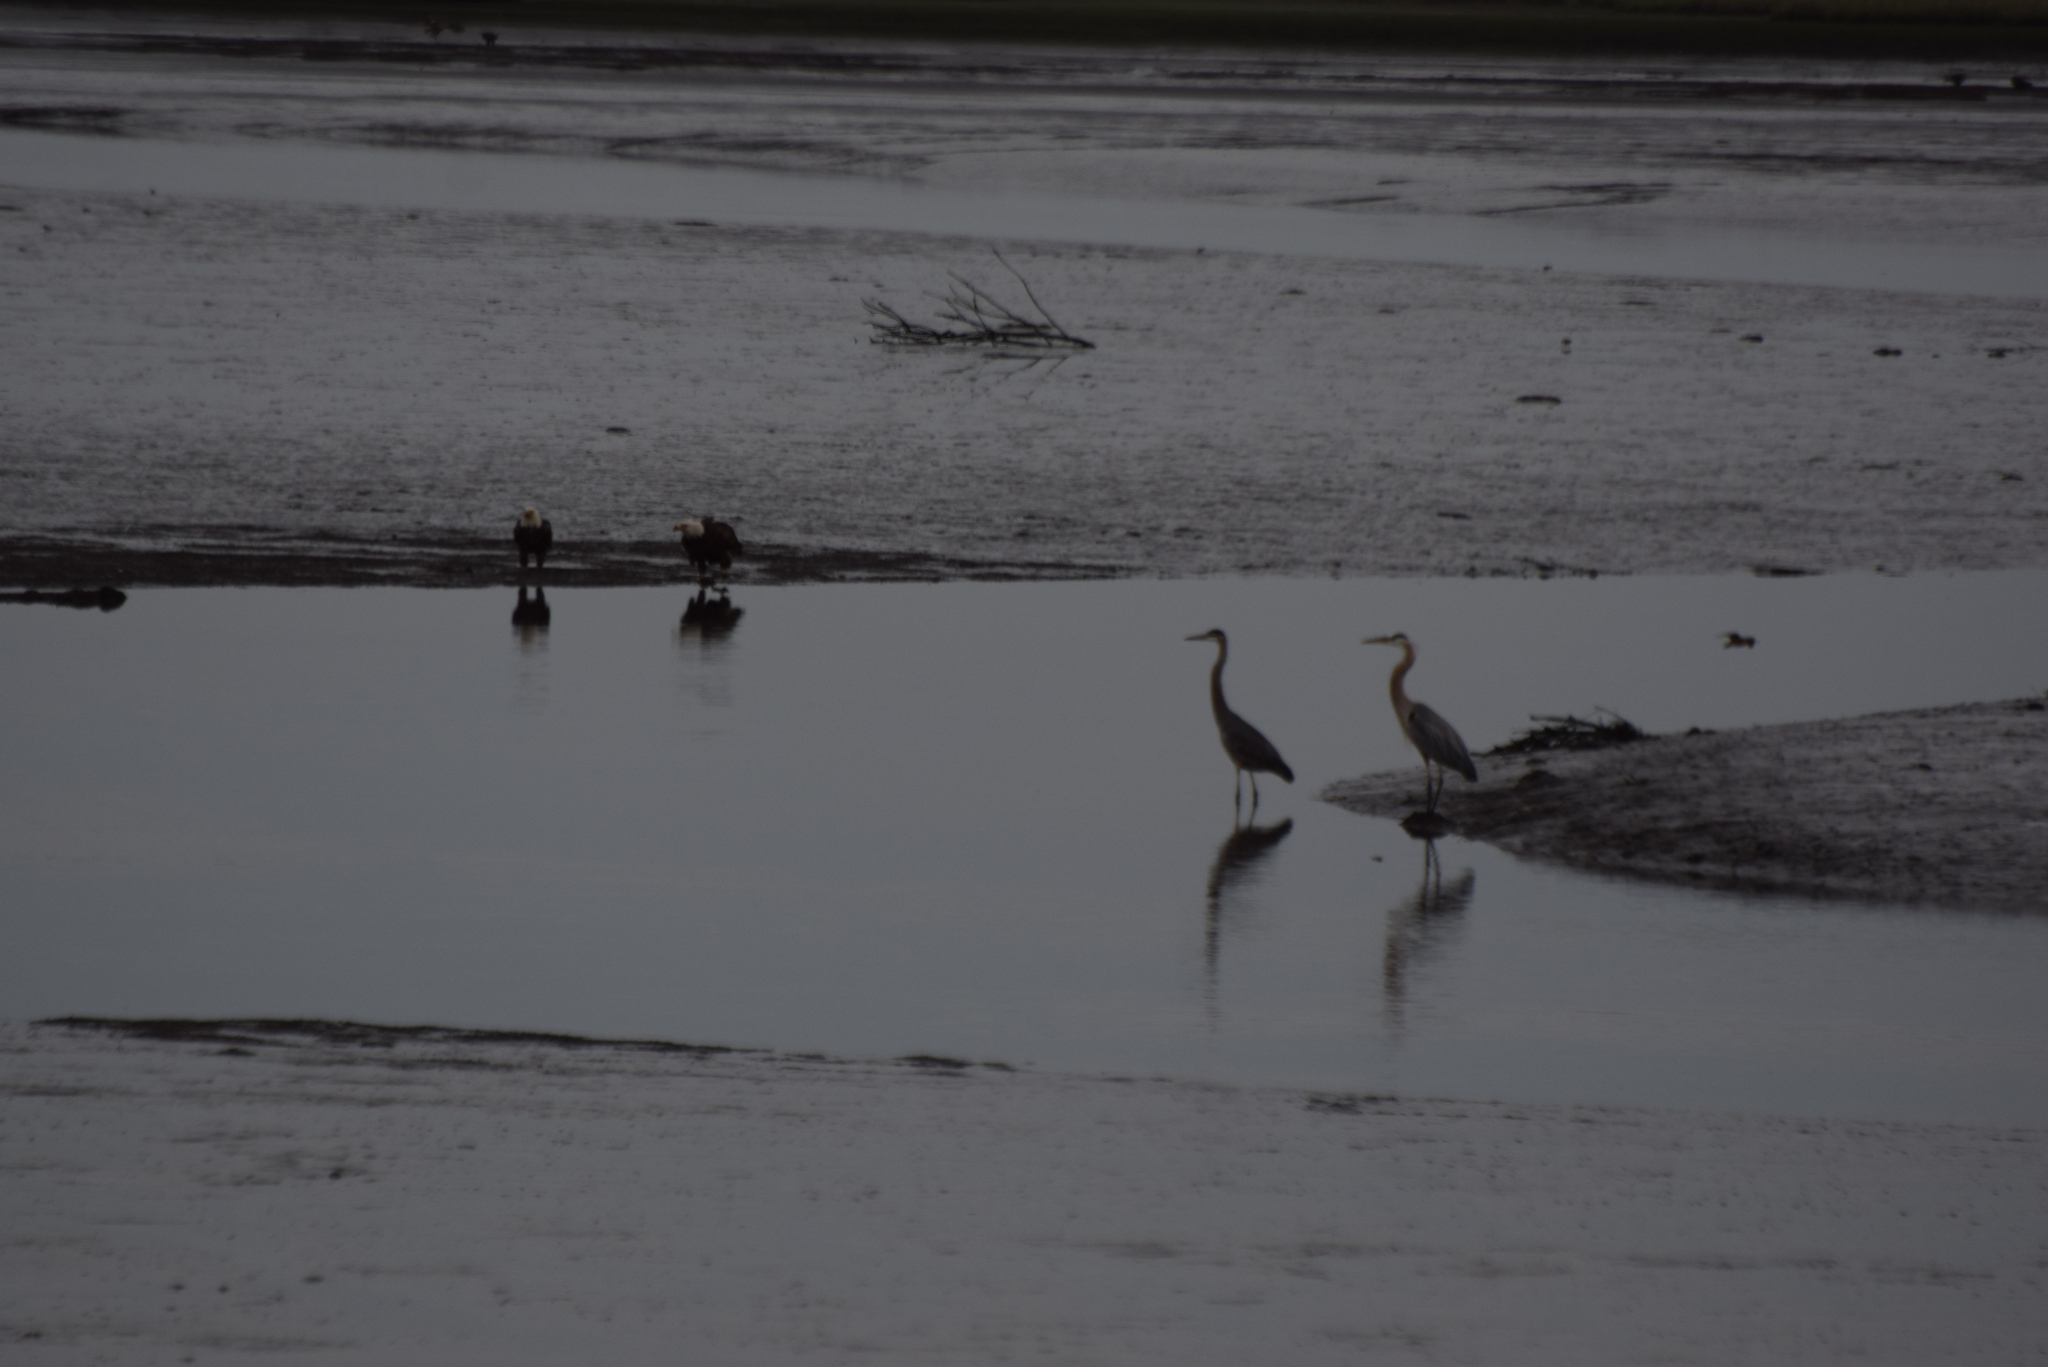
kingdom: Animalia
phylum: Chordata
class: Aves
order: Pelecaniformes
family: Ardeidae
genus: Ardea
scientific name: Ardea herodias
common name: Great blue heron
